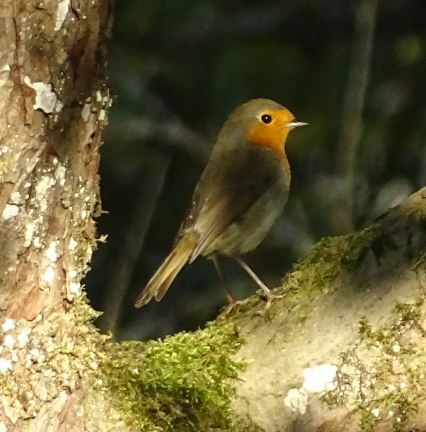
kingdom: Animalia
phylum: Chordata
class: Aves
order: Passeriformes
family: Muscicapidae
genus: Erithacus
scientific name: Erithacus rubecula
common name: European robin
